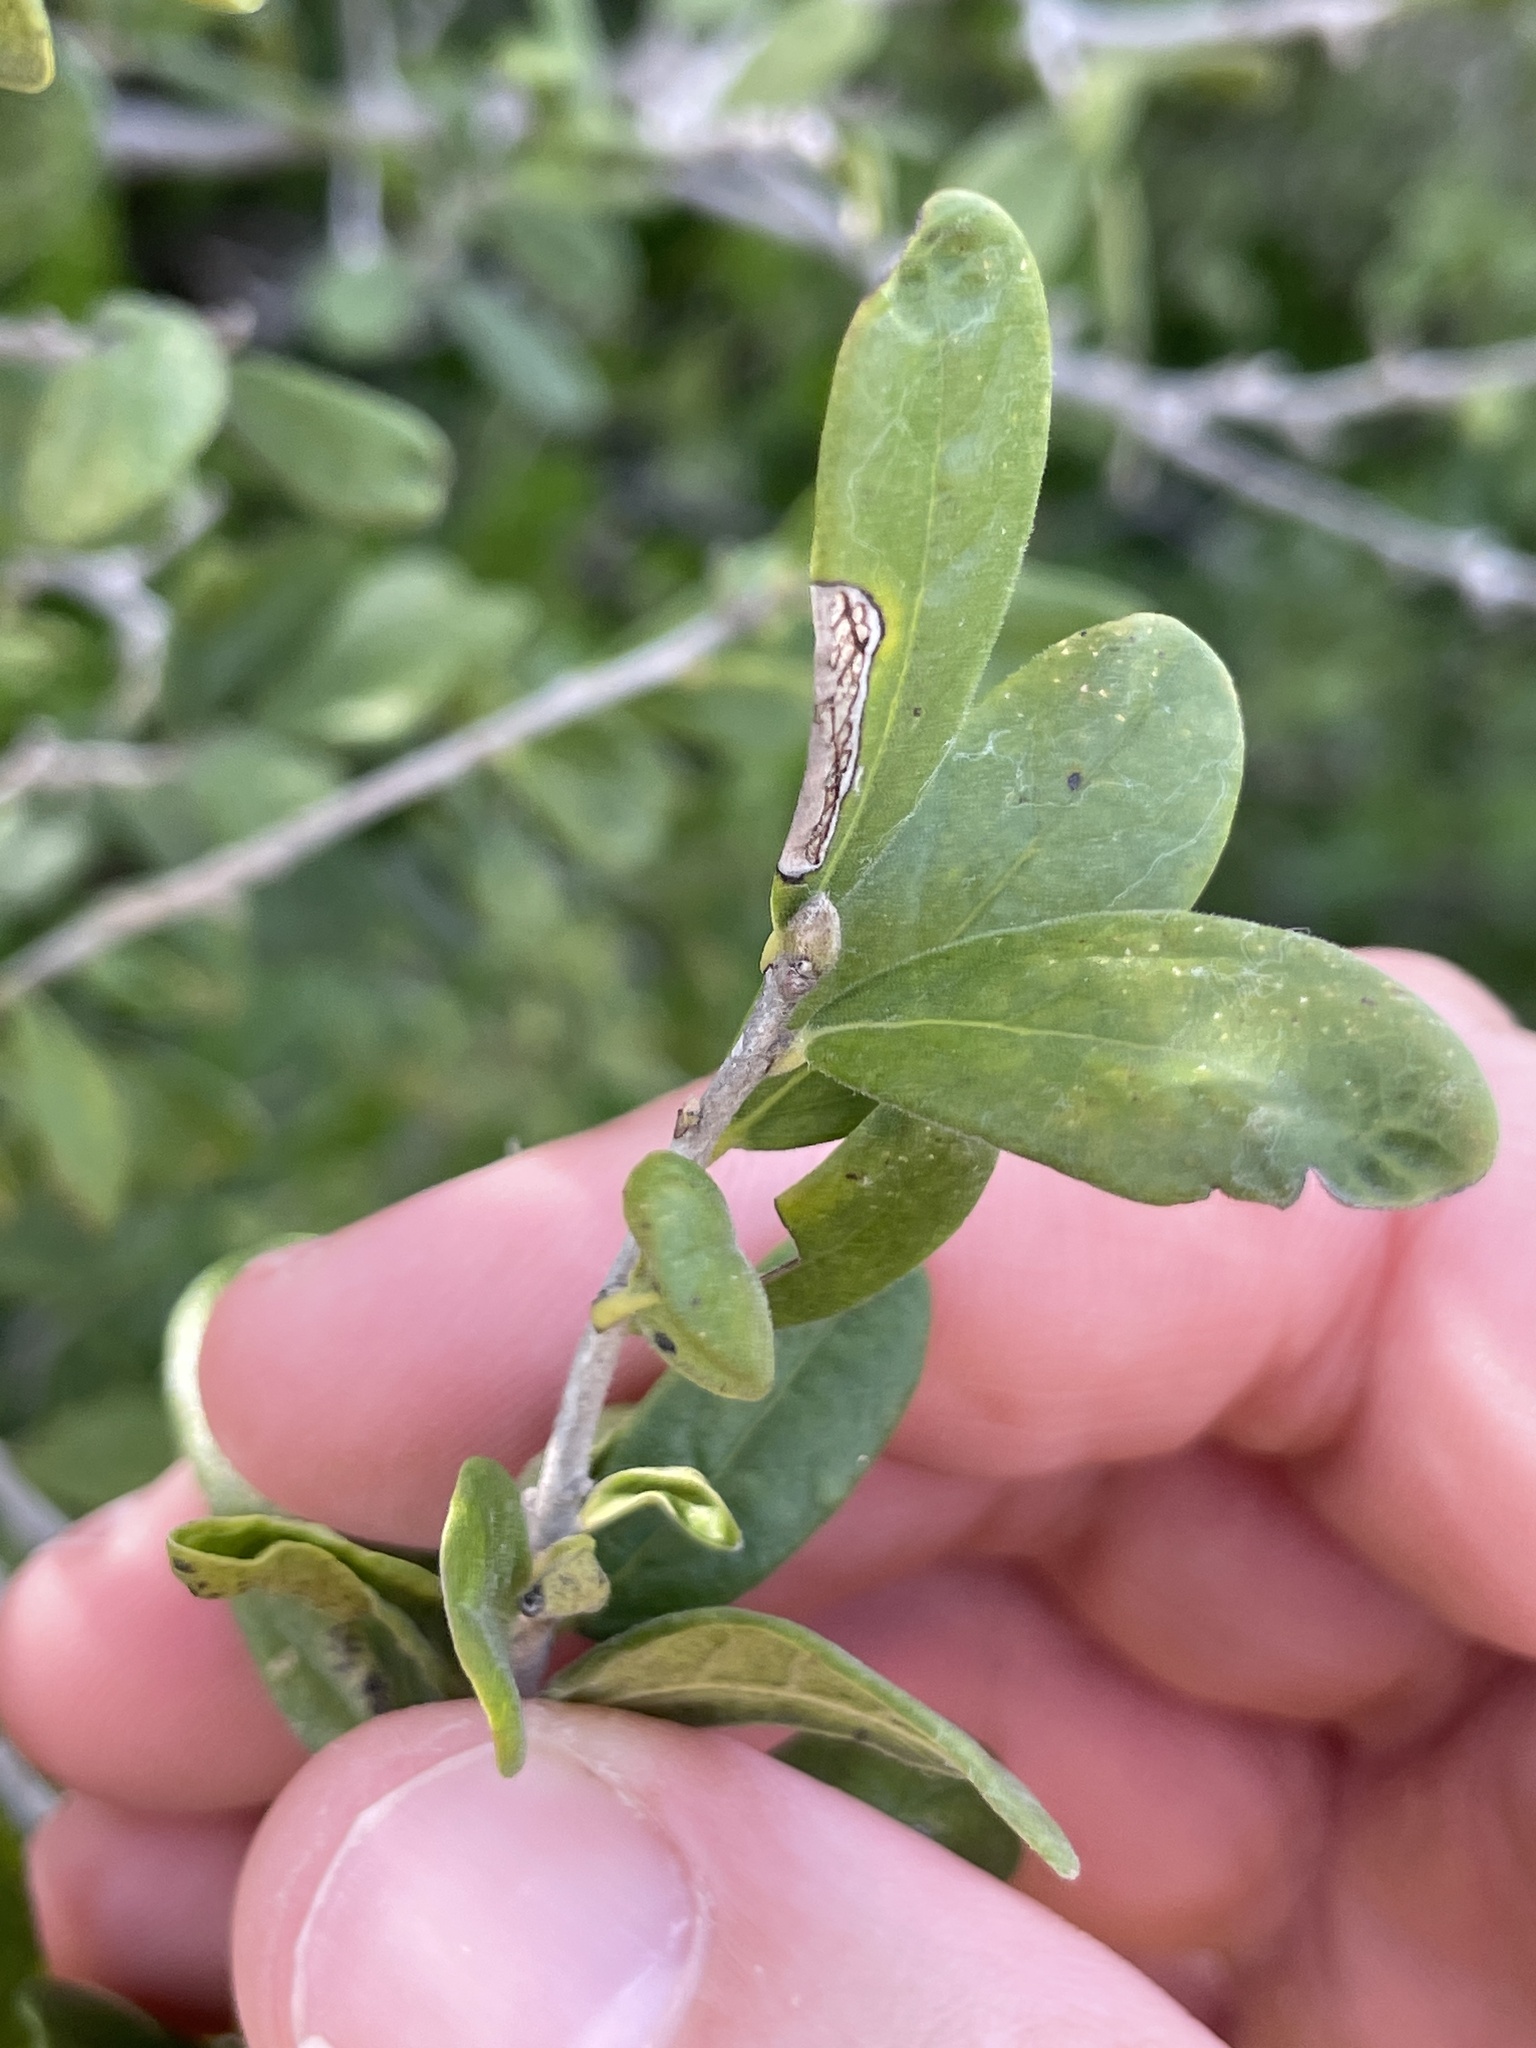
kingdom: Plantae
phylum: Tracheophyta
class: Magnoliopsida
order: Ericales
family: Ebenaceae
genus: Diospyros
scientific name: Diospyros texana
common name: Texas persimmon
